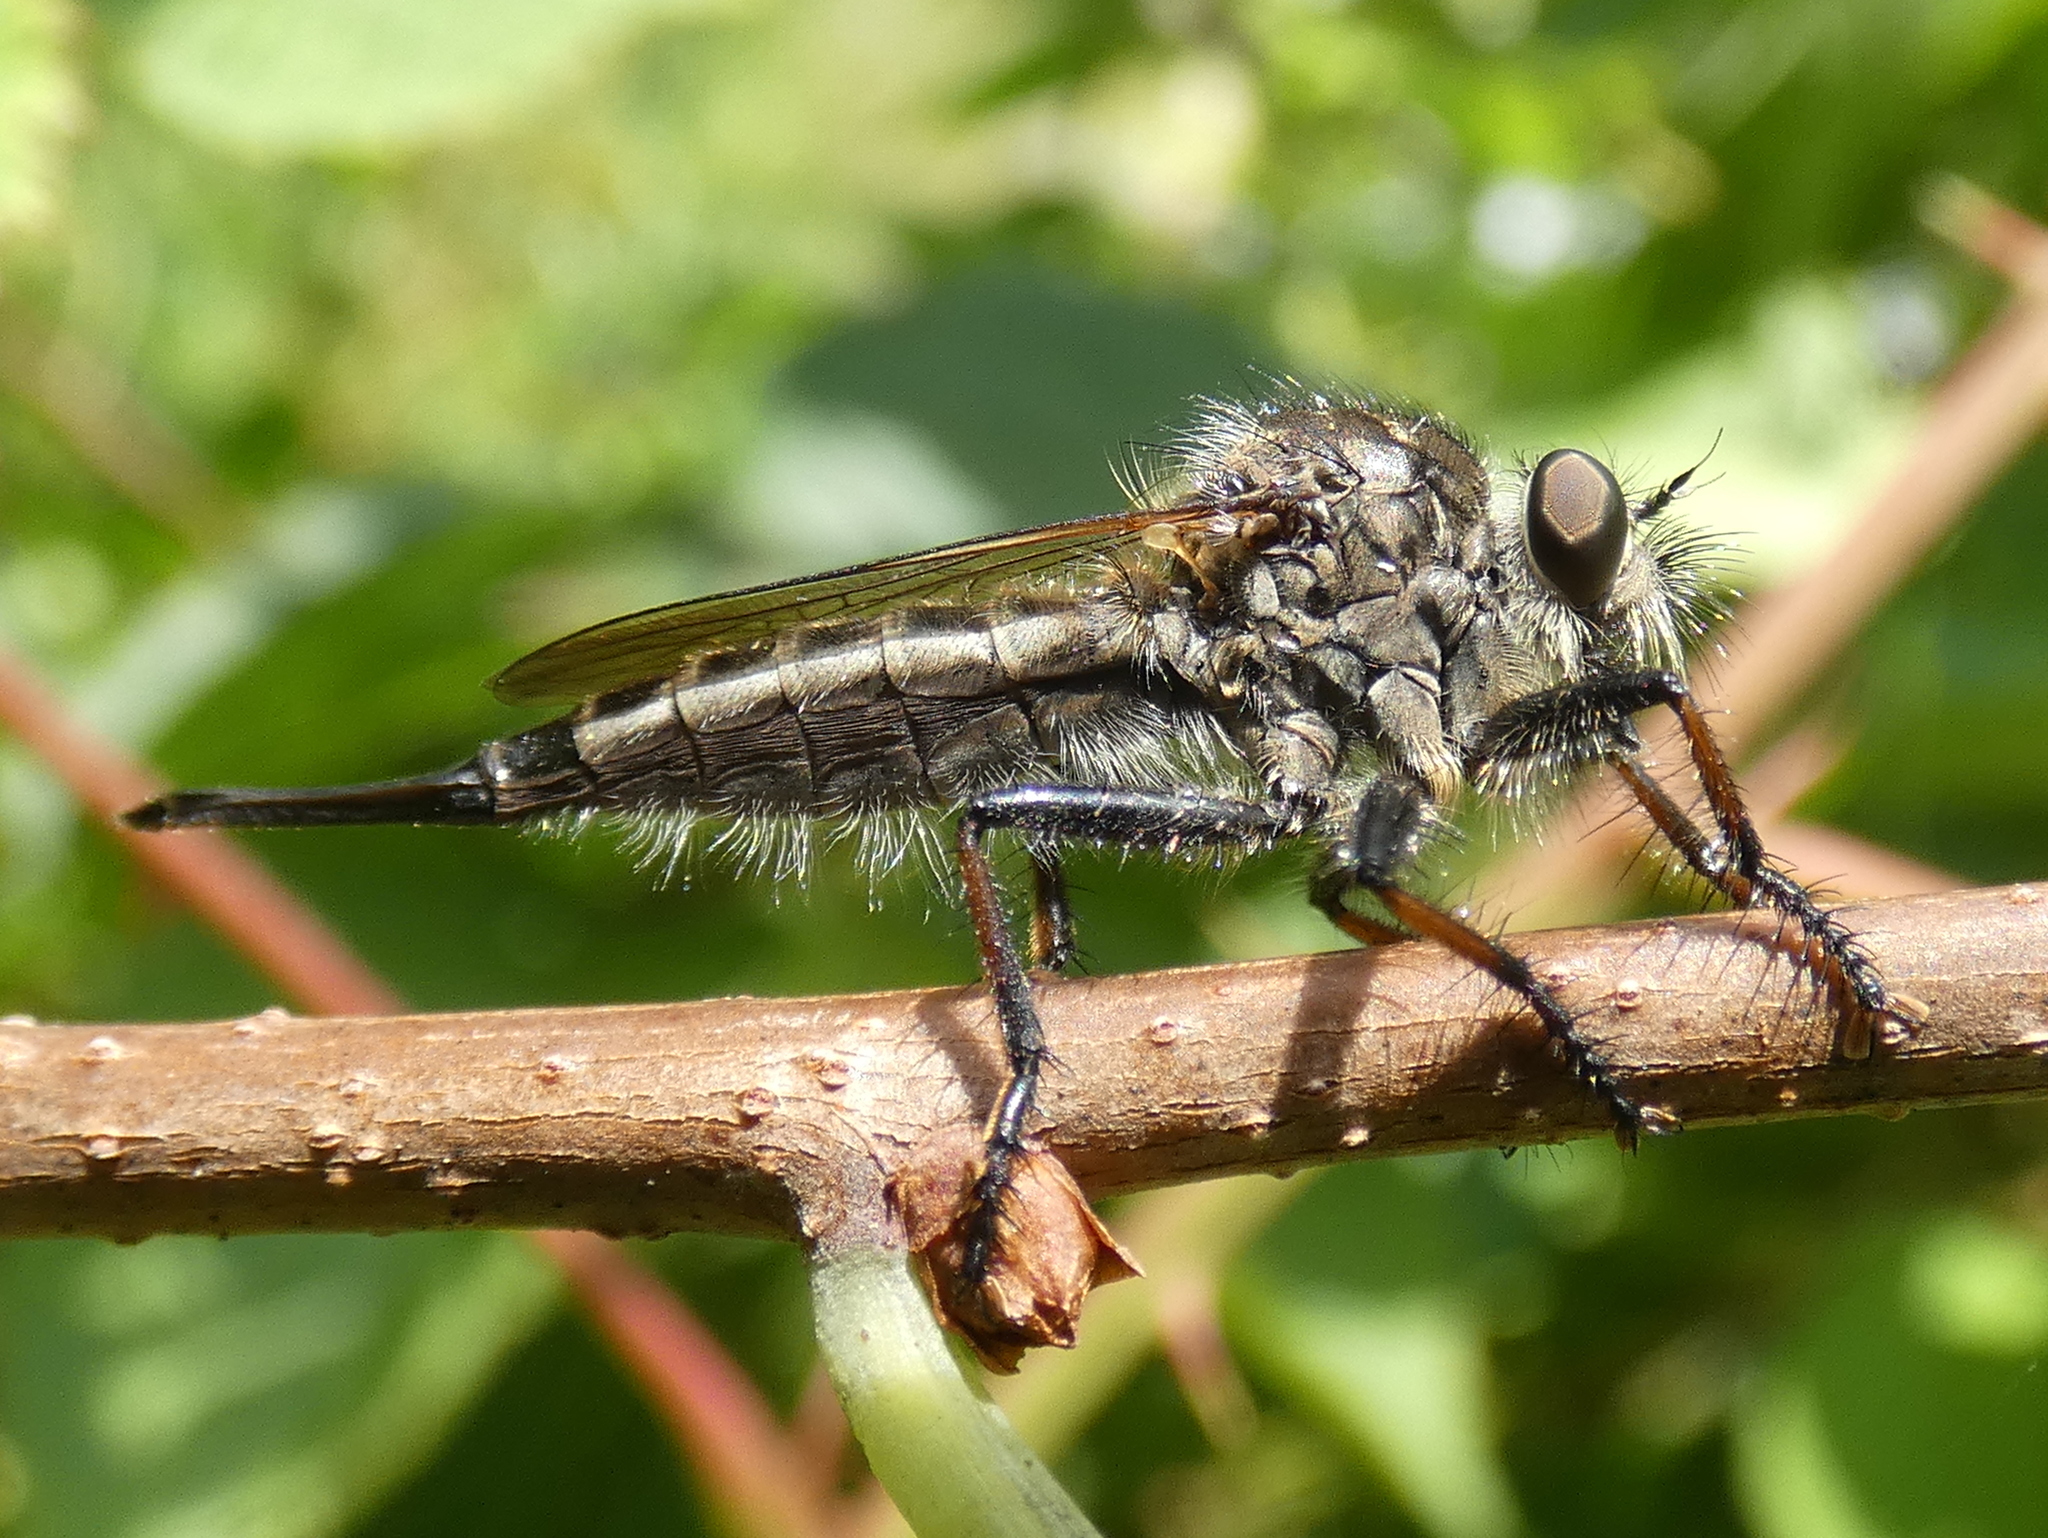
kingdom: Animalia
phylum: Arthropoda
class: Insecta
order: Diptera
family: Asilidae
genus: Efferia
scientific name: Efferia aestuans
